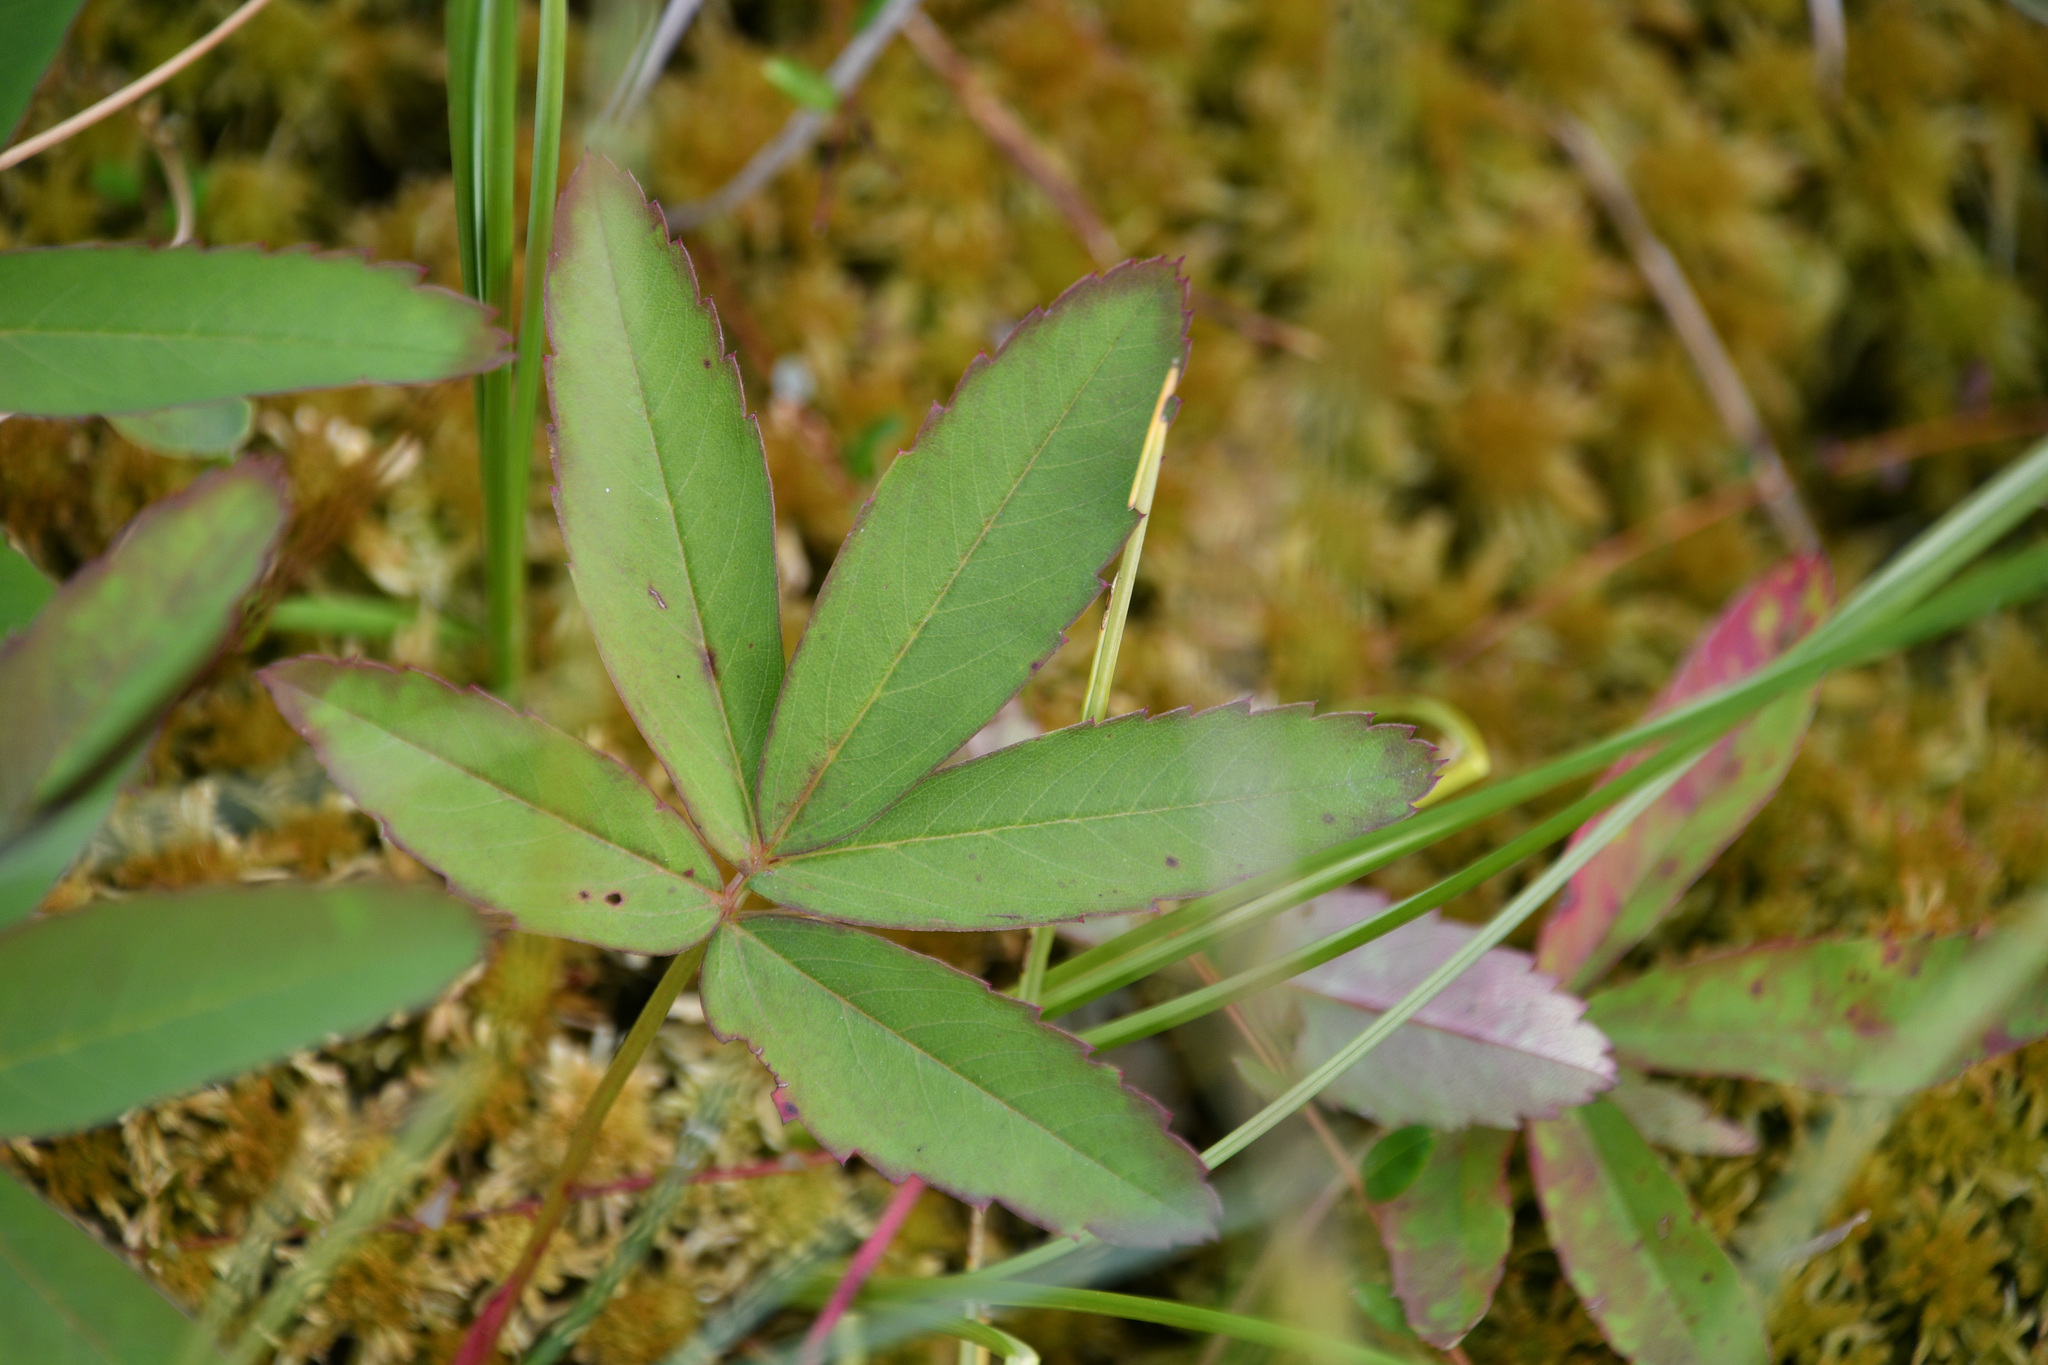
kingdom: Plantae
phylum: Tracheophyta
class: Magnoliopsida
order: Rosales
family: Rosaceae
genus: Comarum
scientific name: Comarum palustre
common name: Marsh cinquefoil
